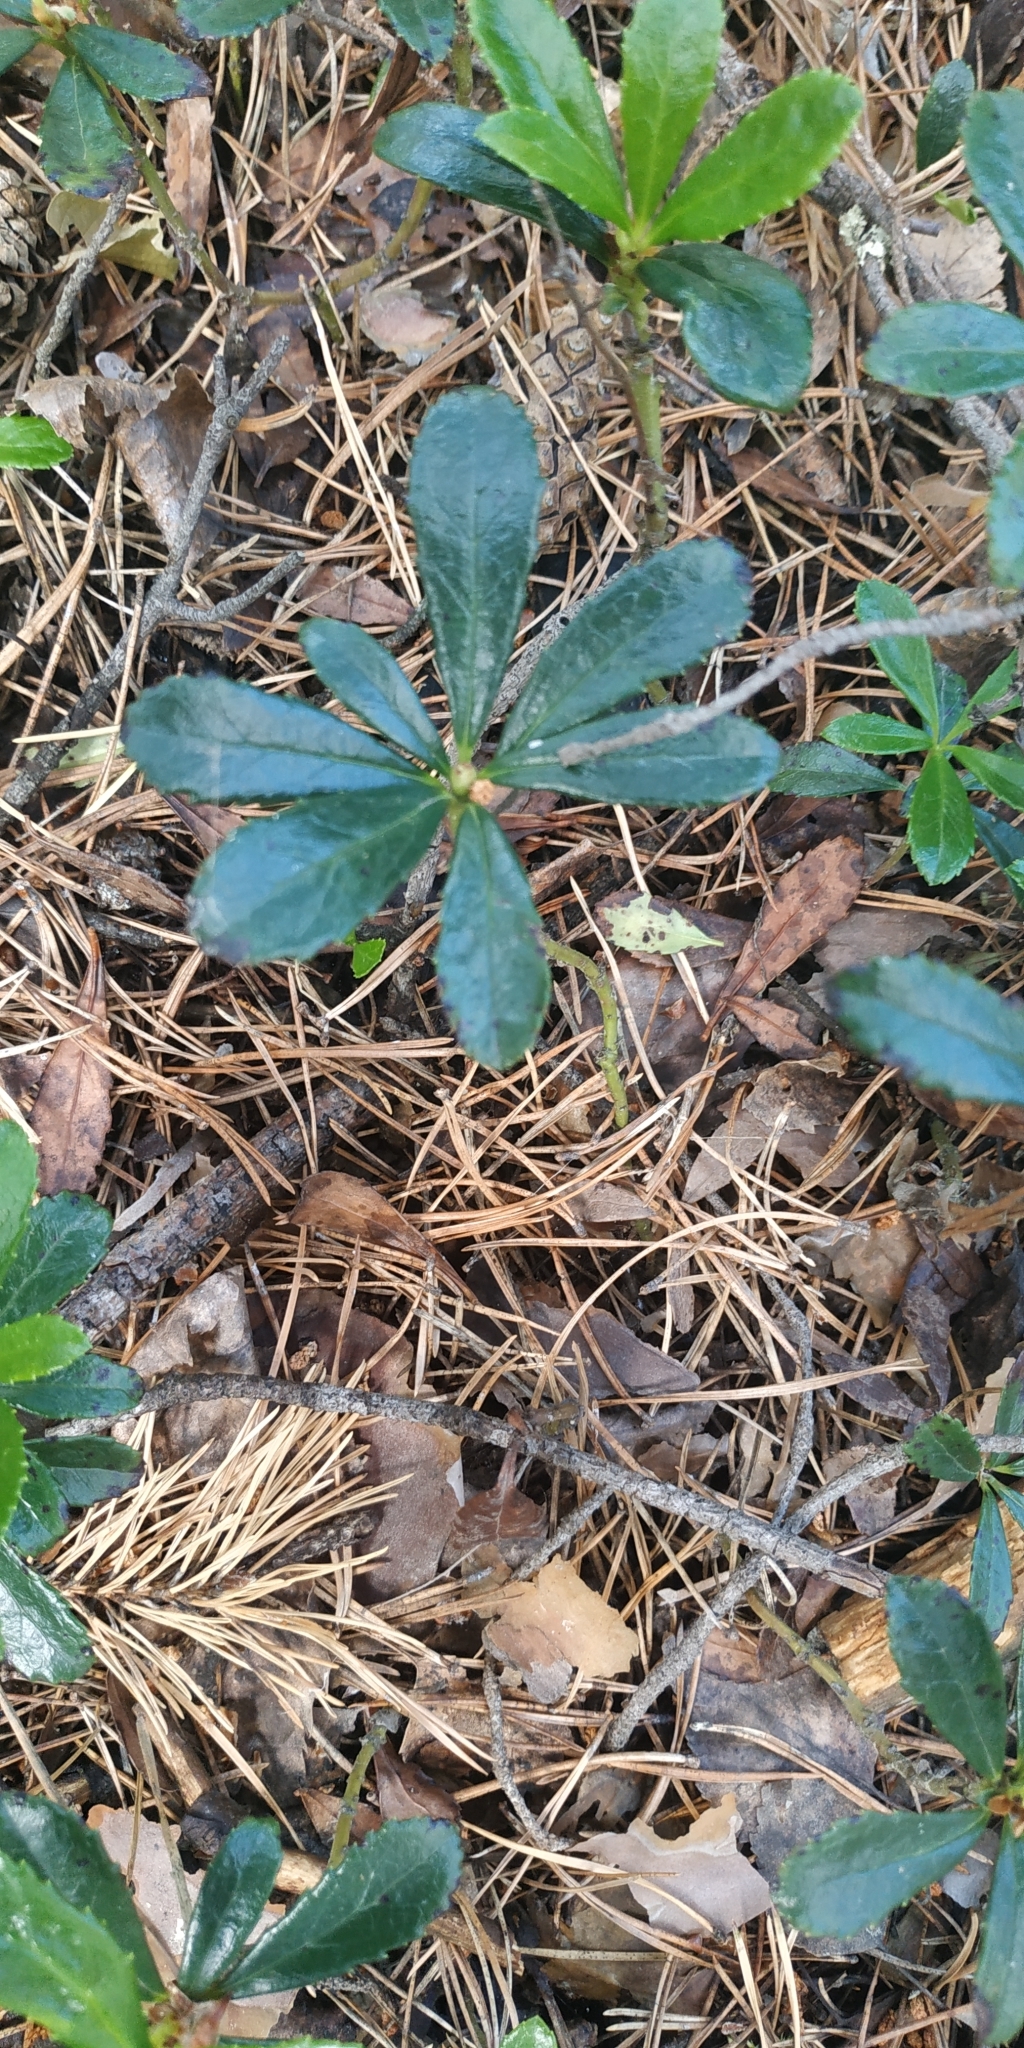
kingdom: Plantae
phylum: Tracheophyta
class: Magnoliopsida
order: Ericales
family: Ericaceae
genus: Chimaphila
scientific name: Chimaphila umbellata
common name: Pipsissewa
